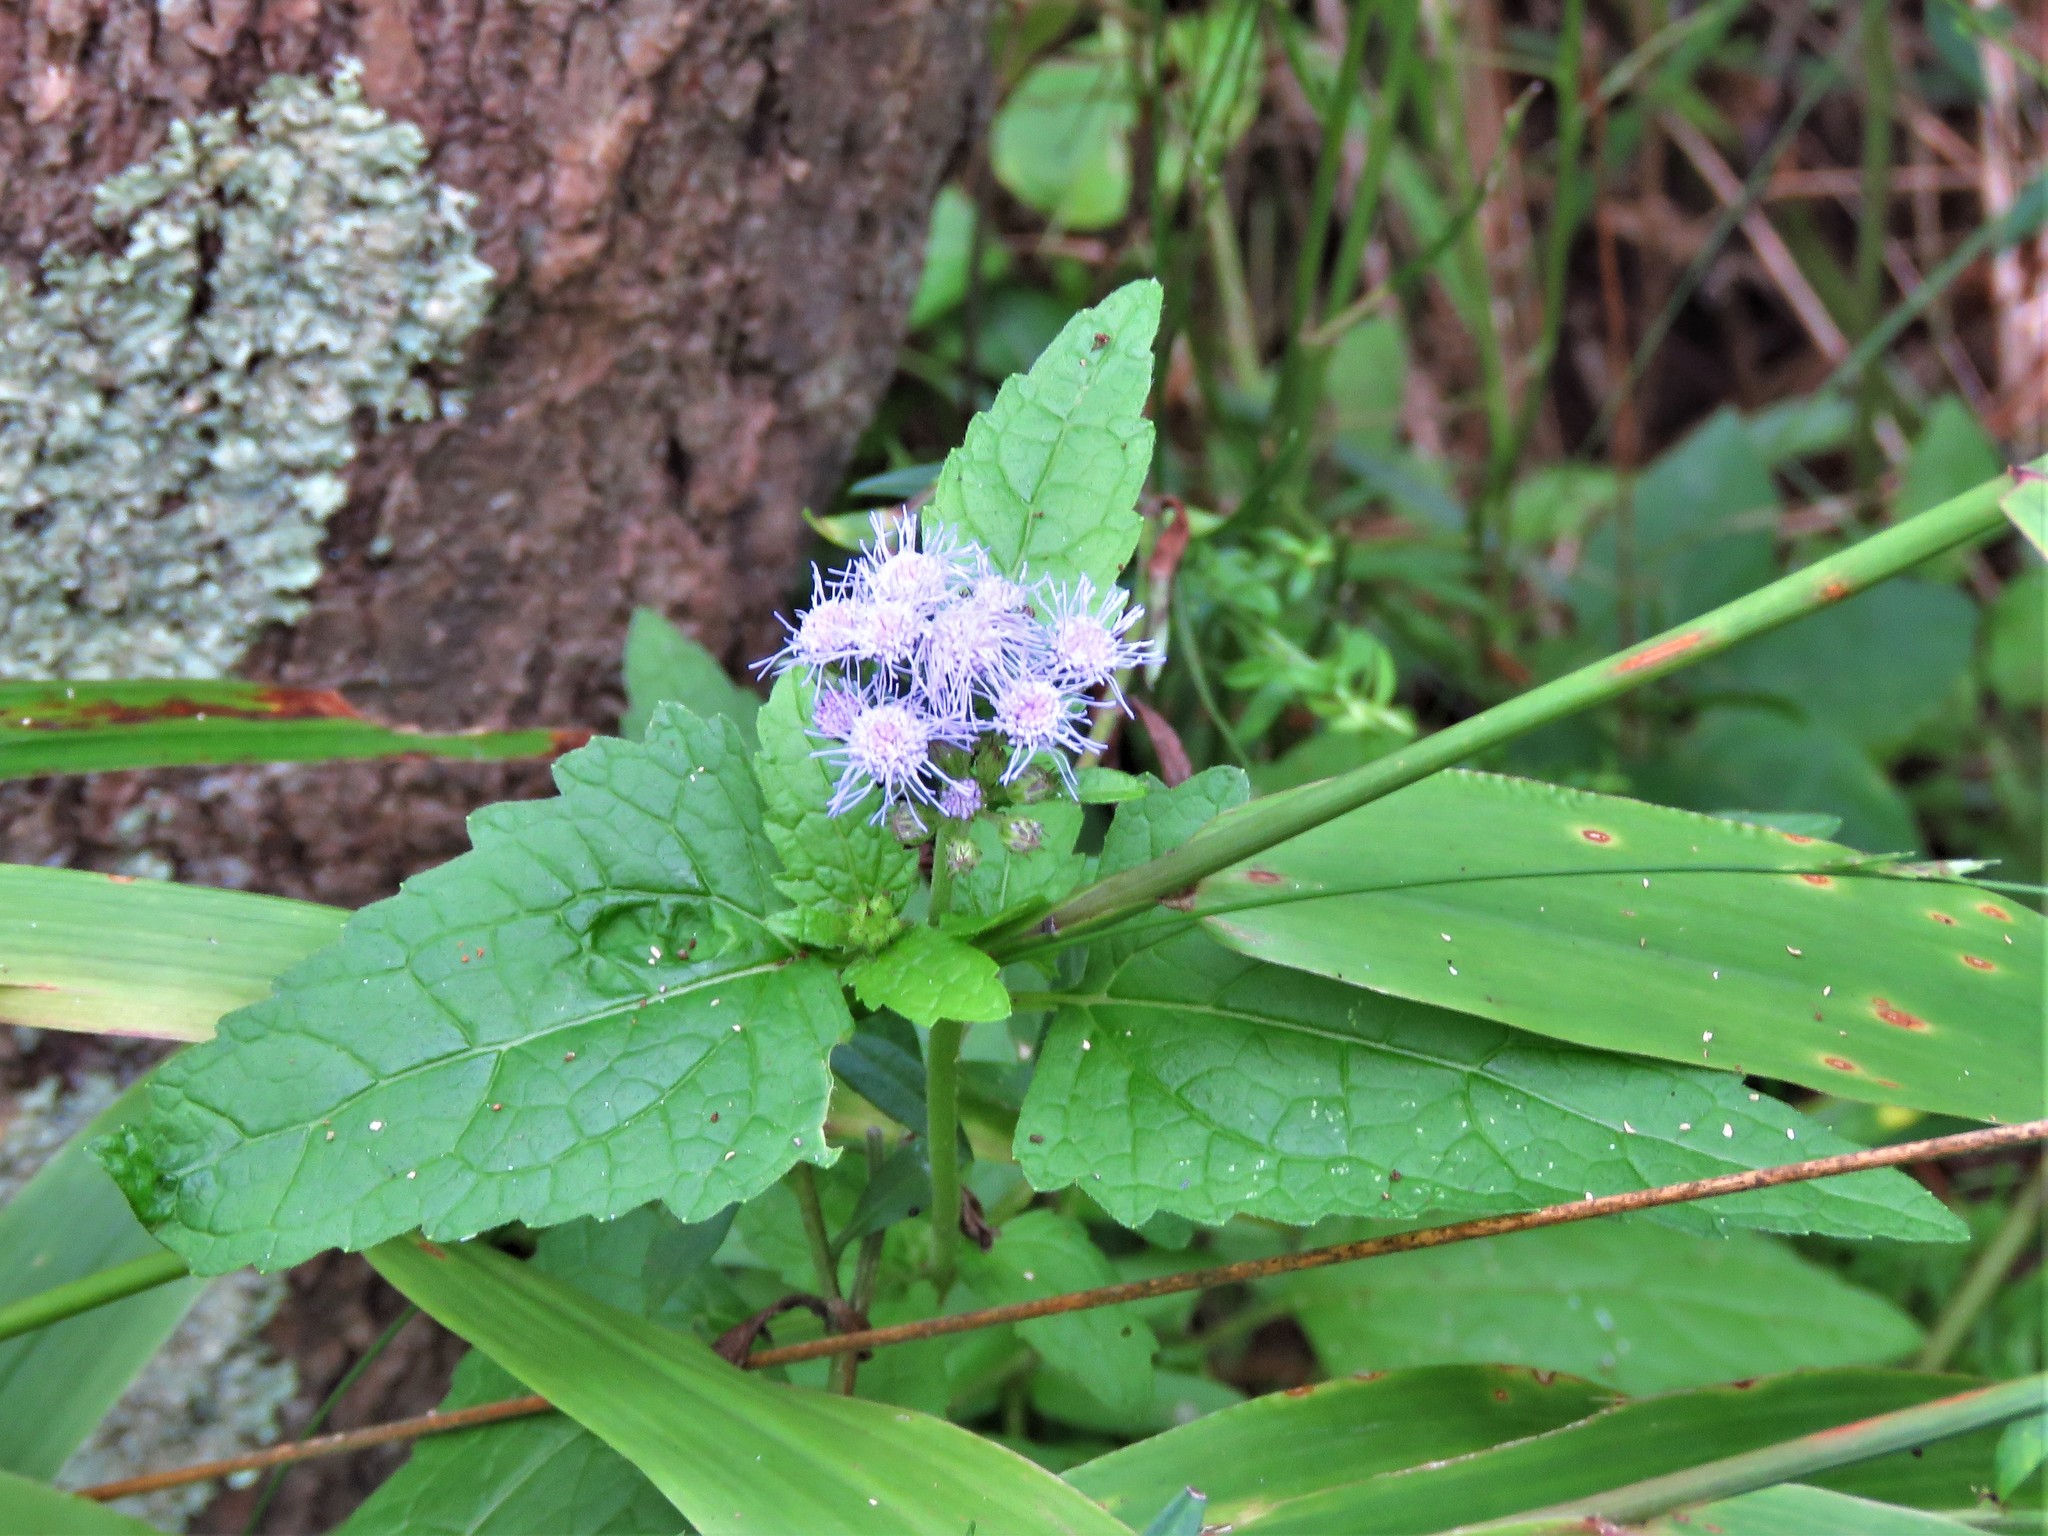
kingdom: Plantae
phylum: Tracheophyta
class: Magnoliopsida
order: Asterales
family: Asteraceae
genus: Conoclinium
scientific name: Conoclinium coelestinum
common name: Blue mistflower
